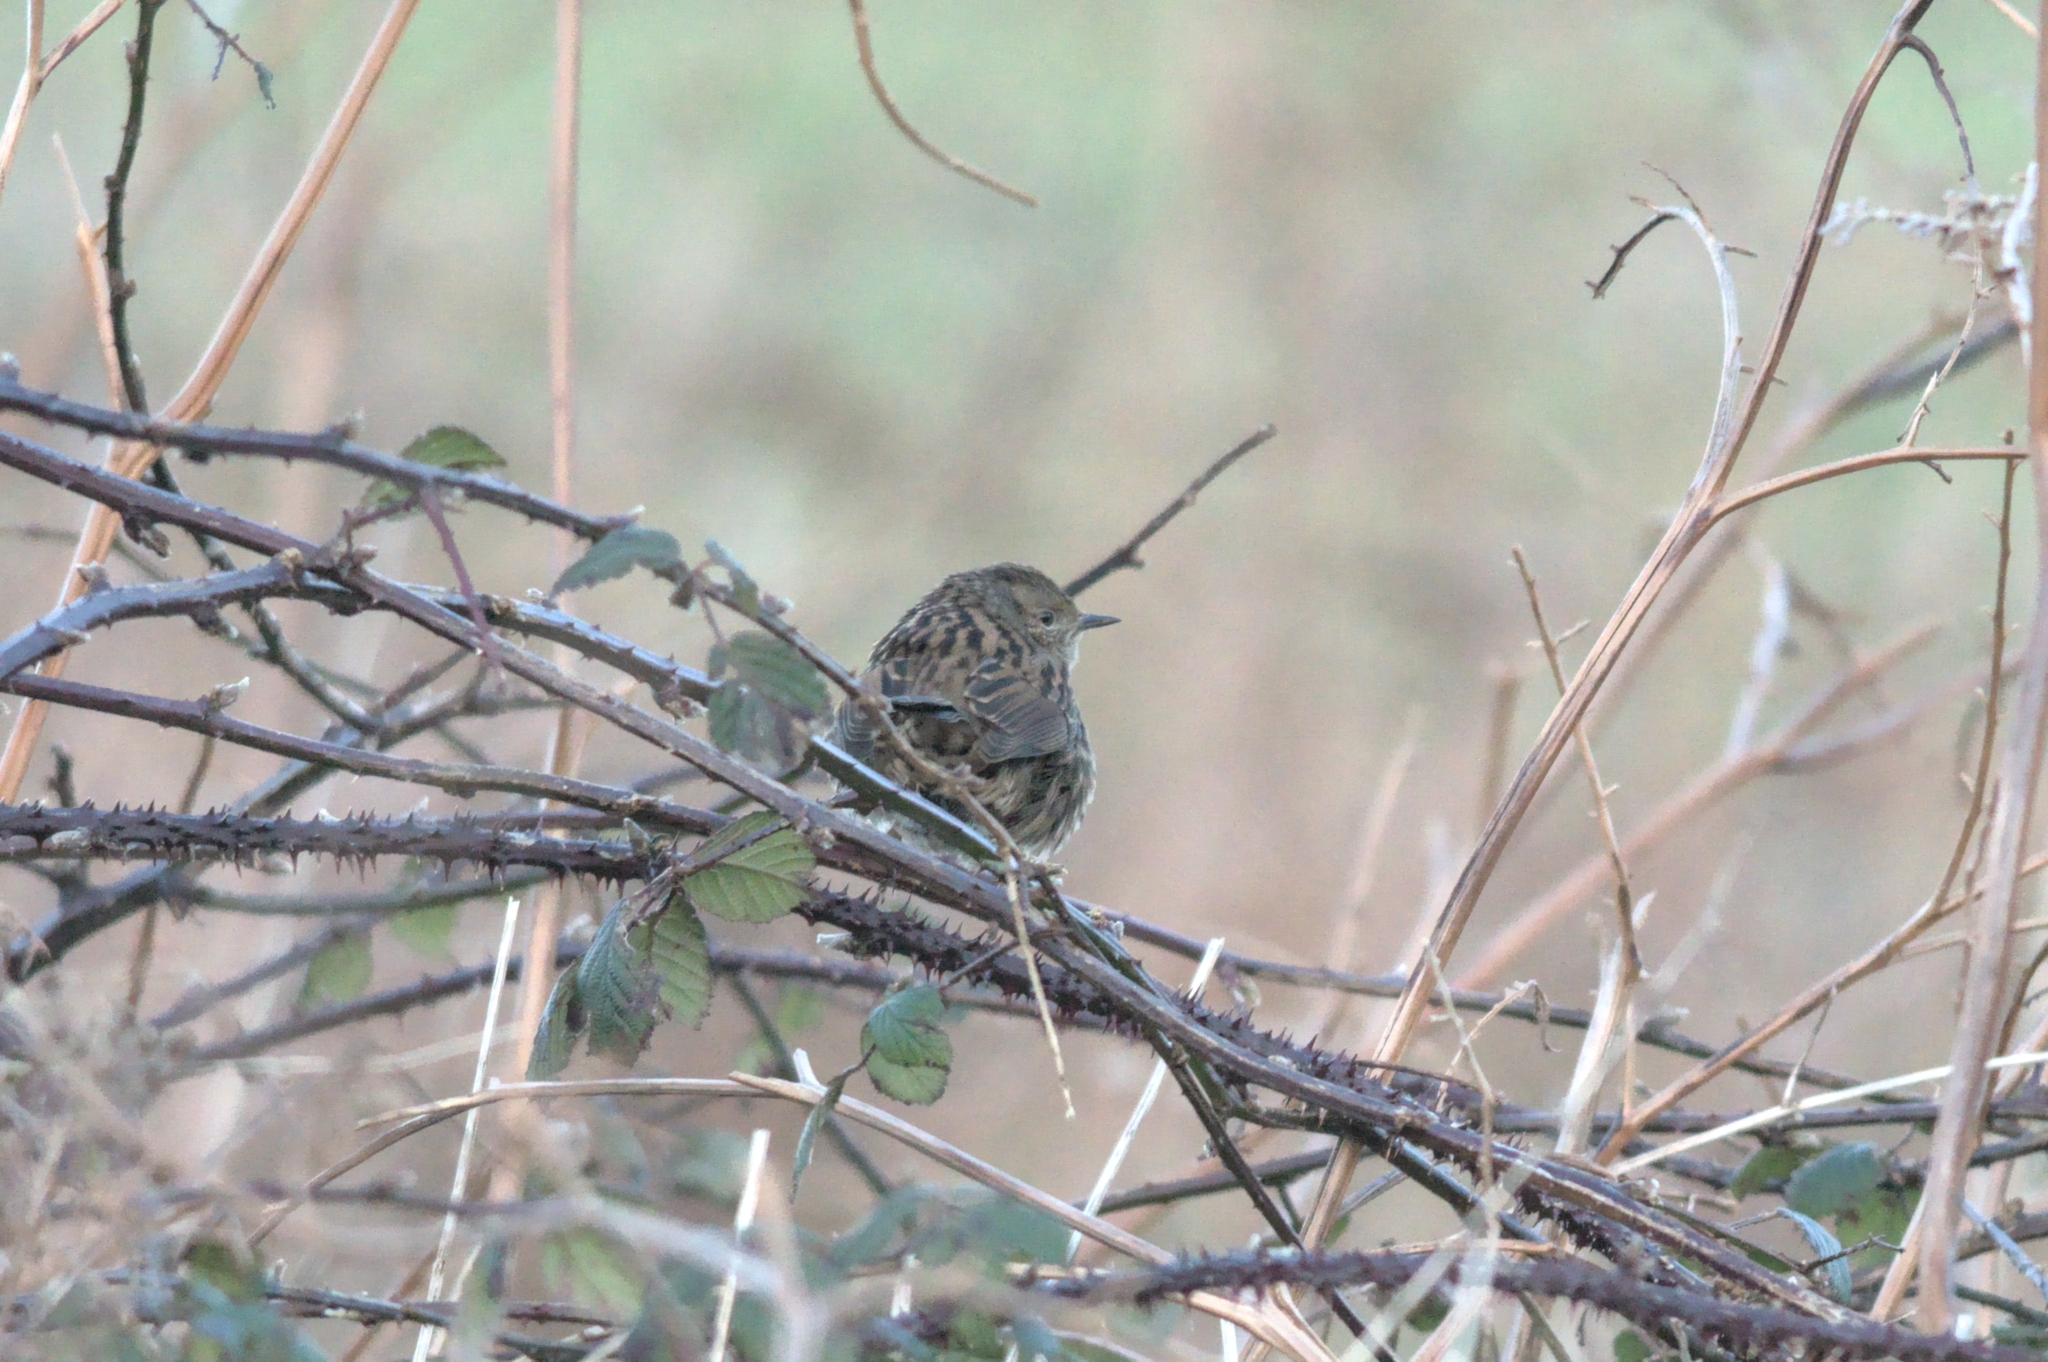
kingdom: Animalia
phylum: Chordata
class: Aves
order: Passeriformes
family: Prunellidae
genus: Prunella
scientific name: Prunella modularis
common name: Dunnock
